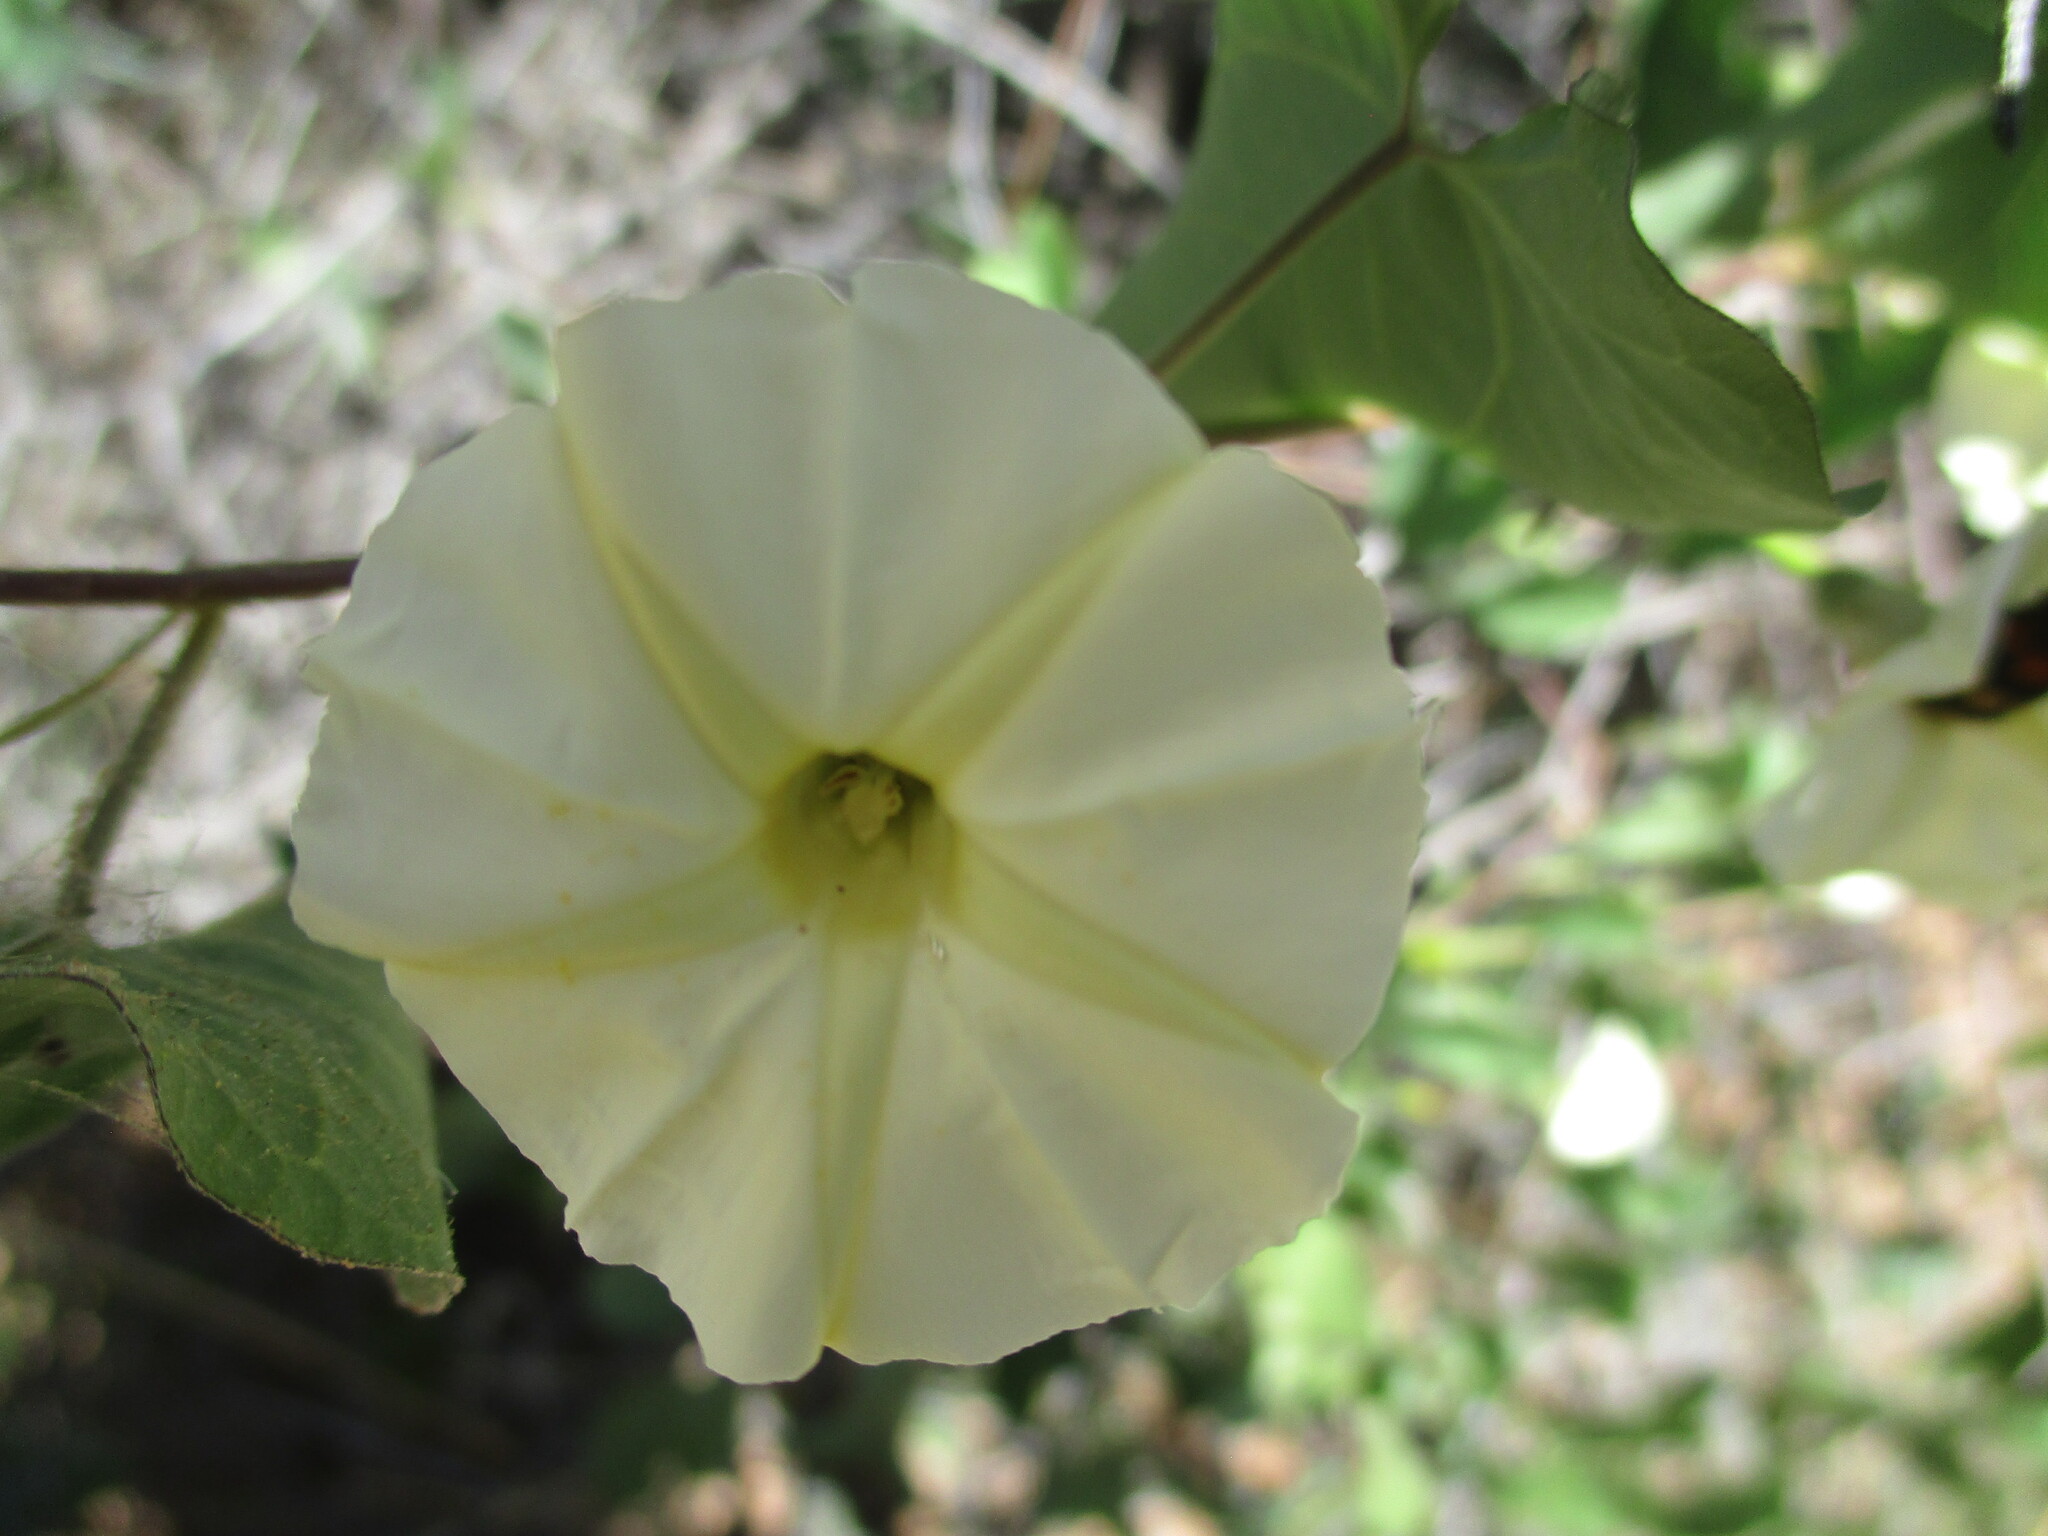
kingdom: Plantae
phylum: Tracheophyta
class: Magnoliopsida
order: Solanales
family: Convolvulaceae
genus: Ipomoea
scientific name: Ipomoea obscura
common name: Obscure morning-glory
